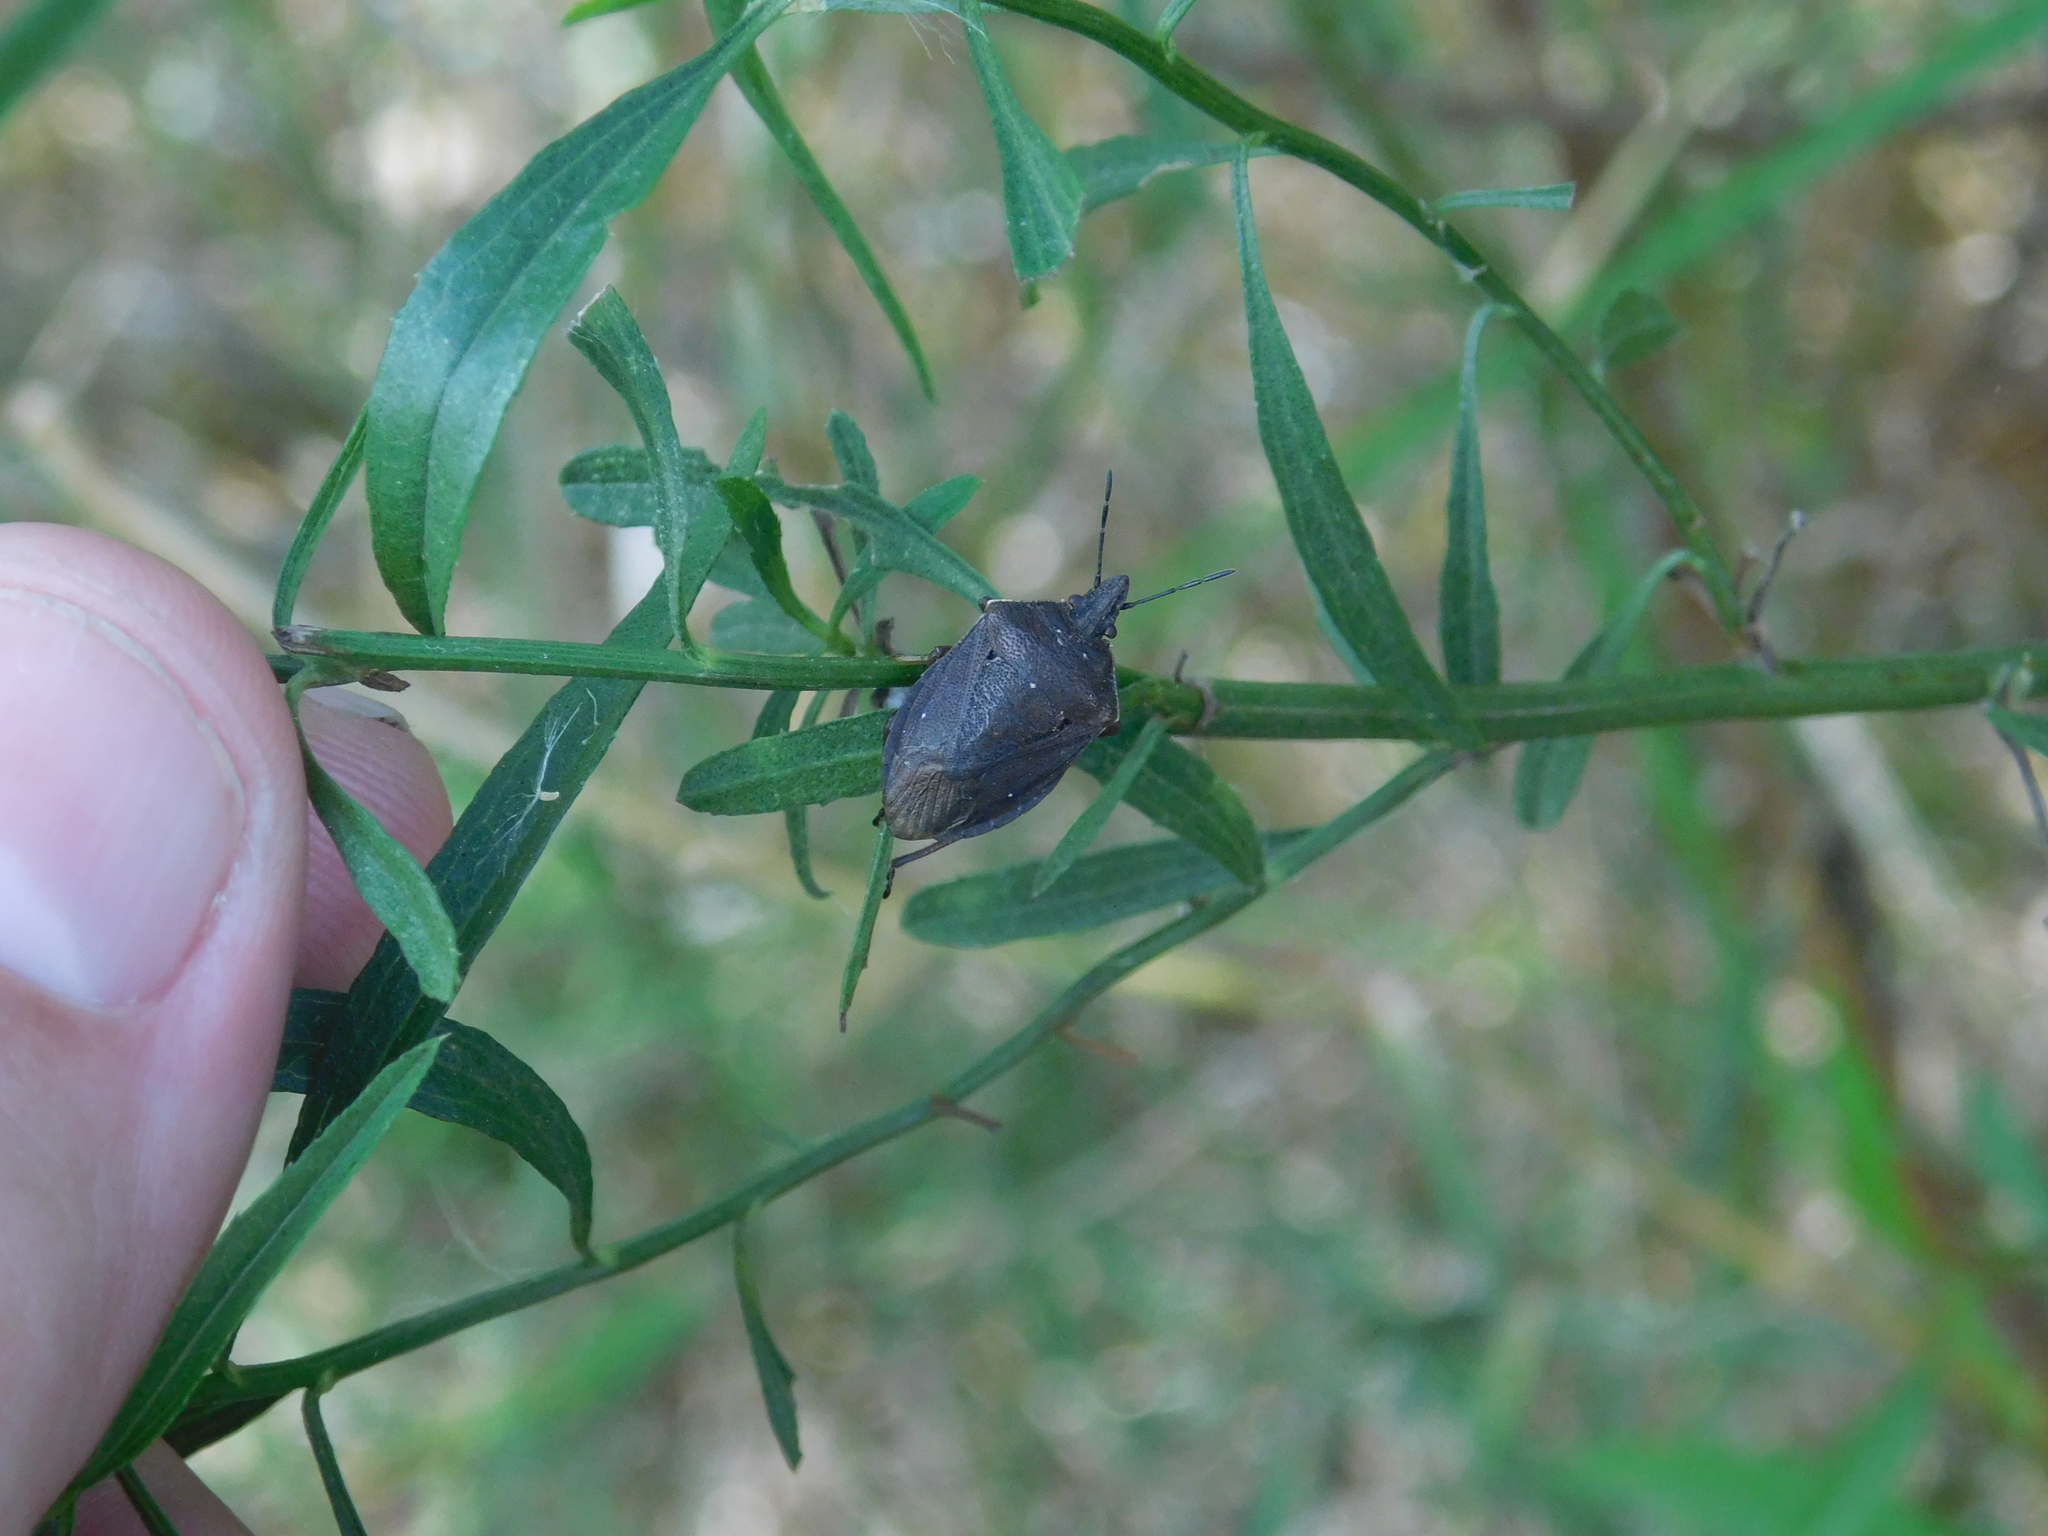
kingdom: Animalia
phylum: Arthropoda
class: Insecta
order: Hemiptera
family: Pentatomidae
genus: Tibraca
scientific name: Tibraca limbativentris
